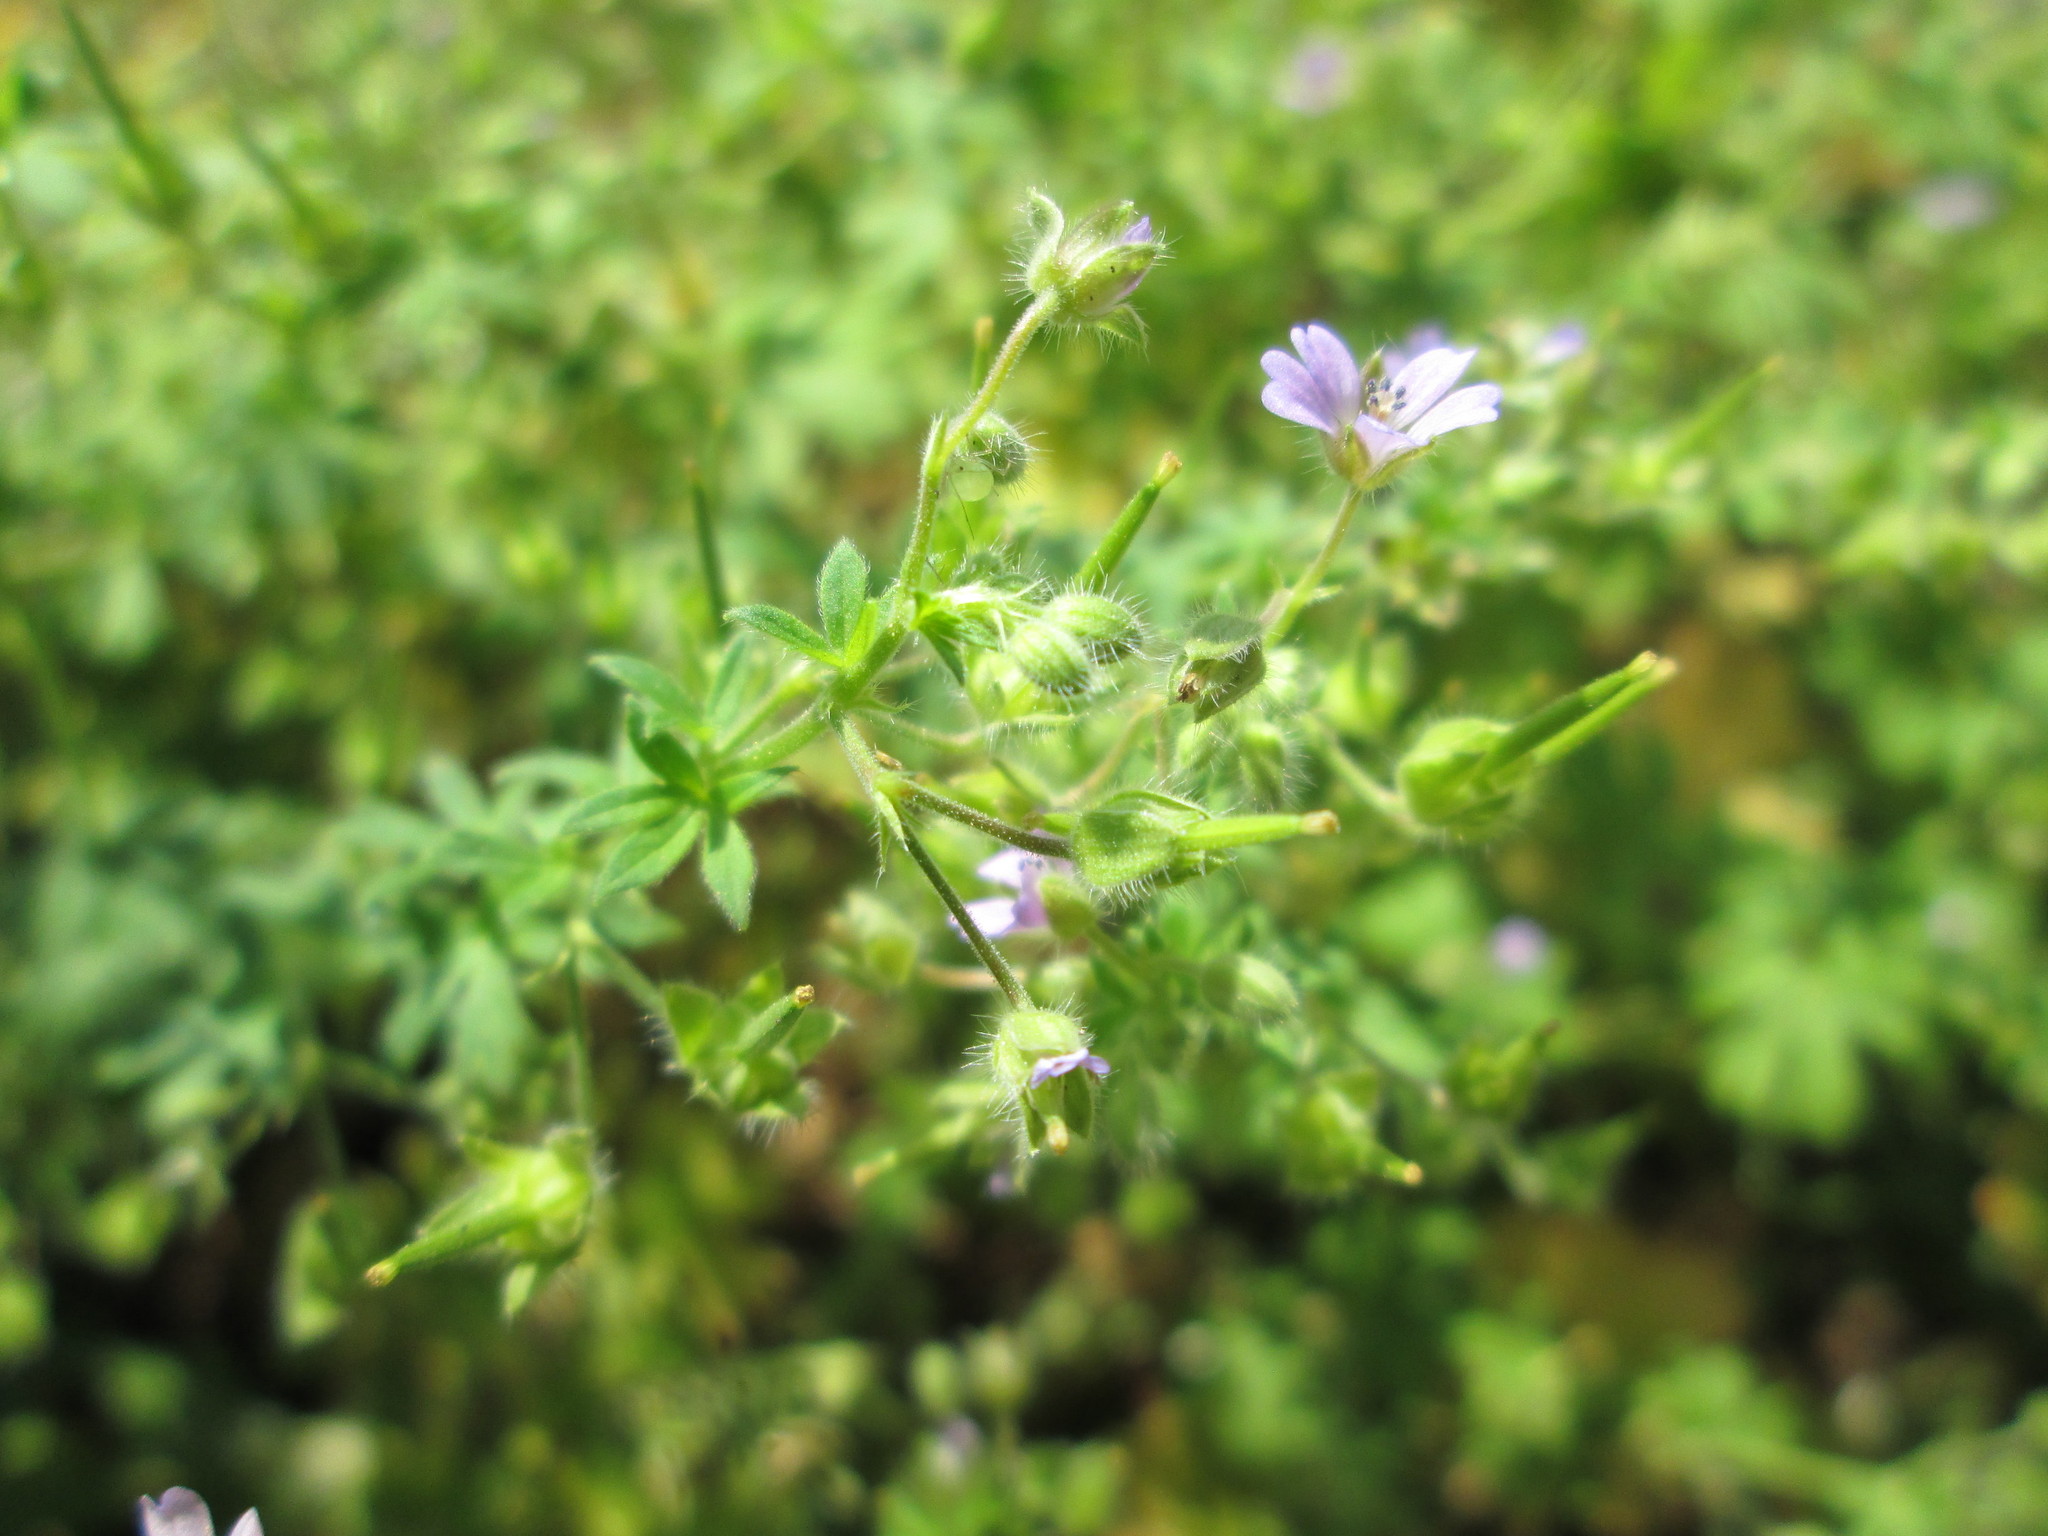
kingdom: Plantae
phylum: Tracheophyta
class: Magnoliopsida
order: Geraniales
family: Geraniaceae
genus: Geranium
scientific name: Geranium pusillum
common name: Small geranium
